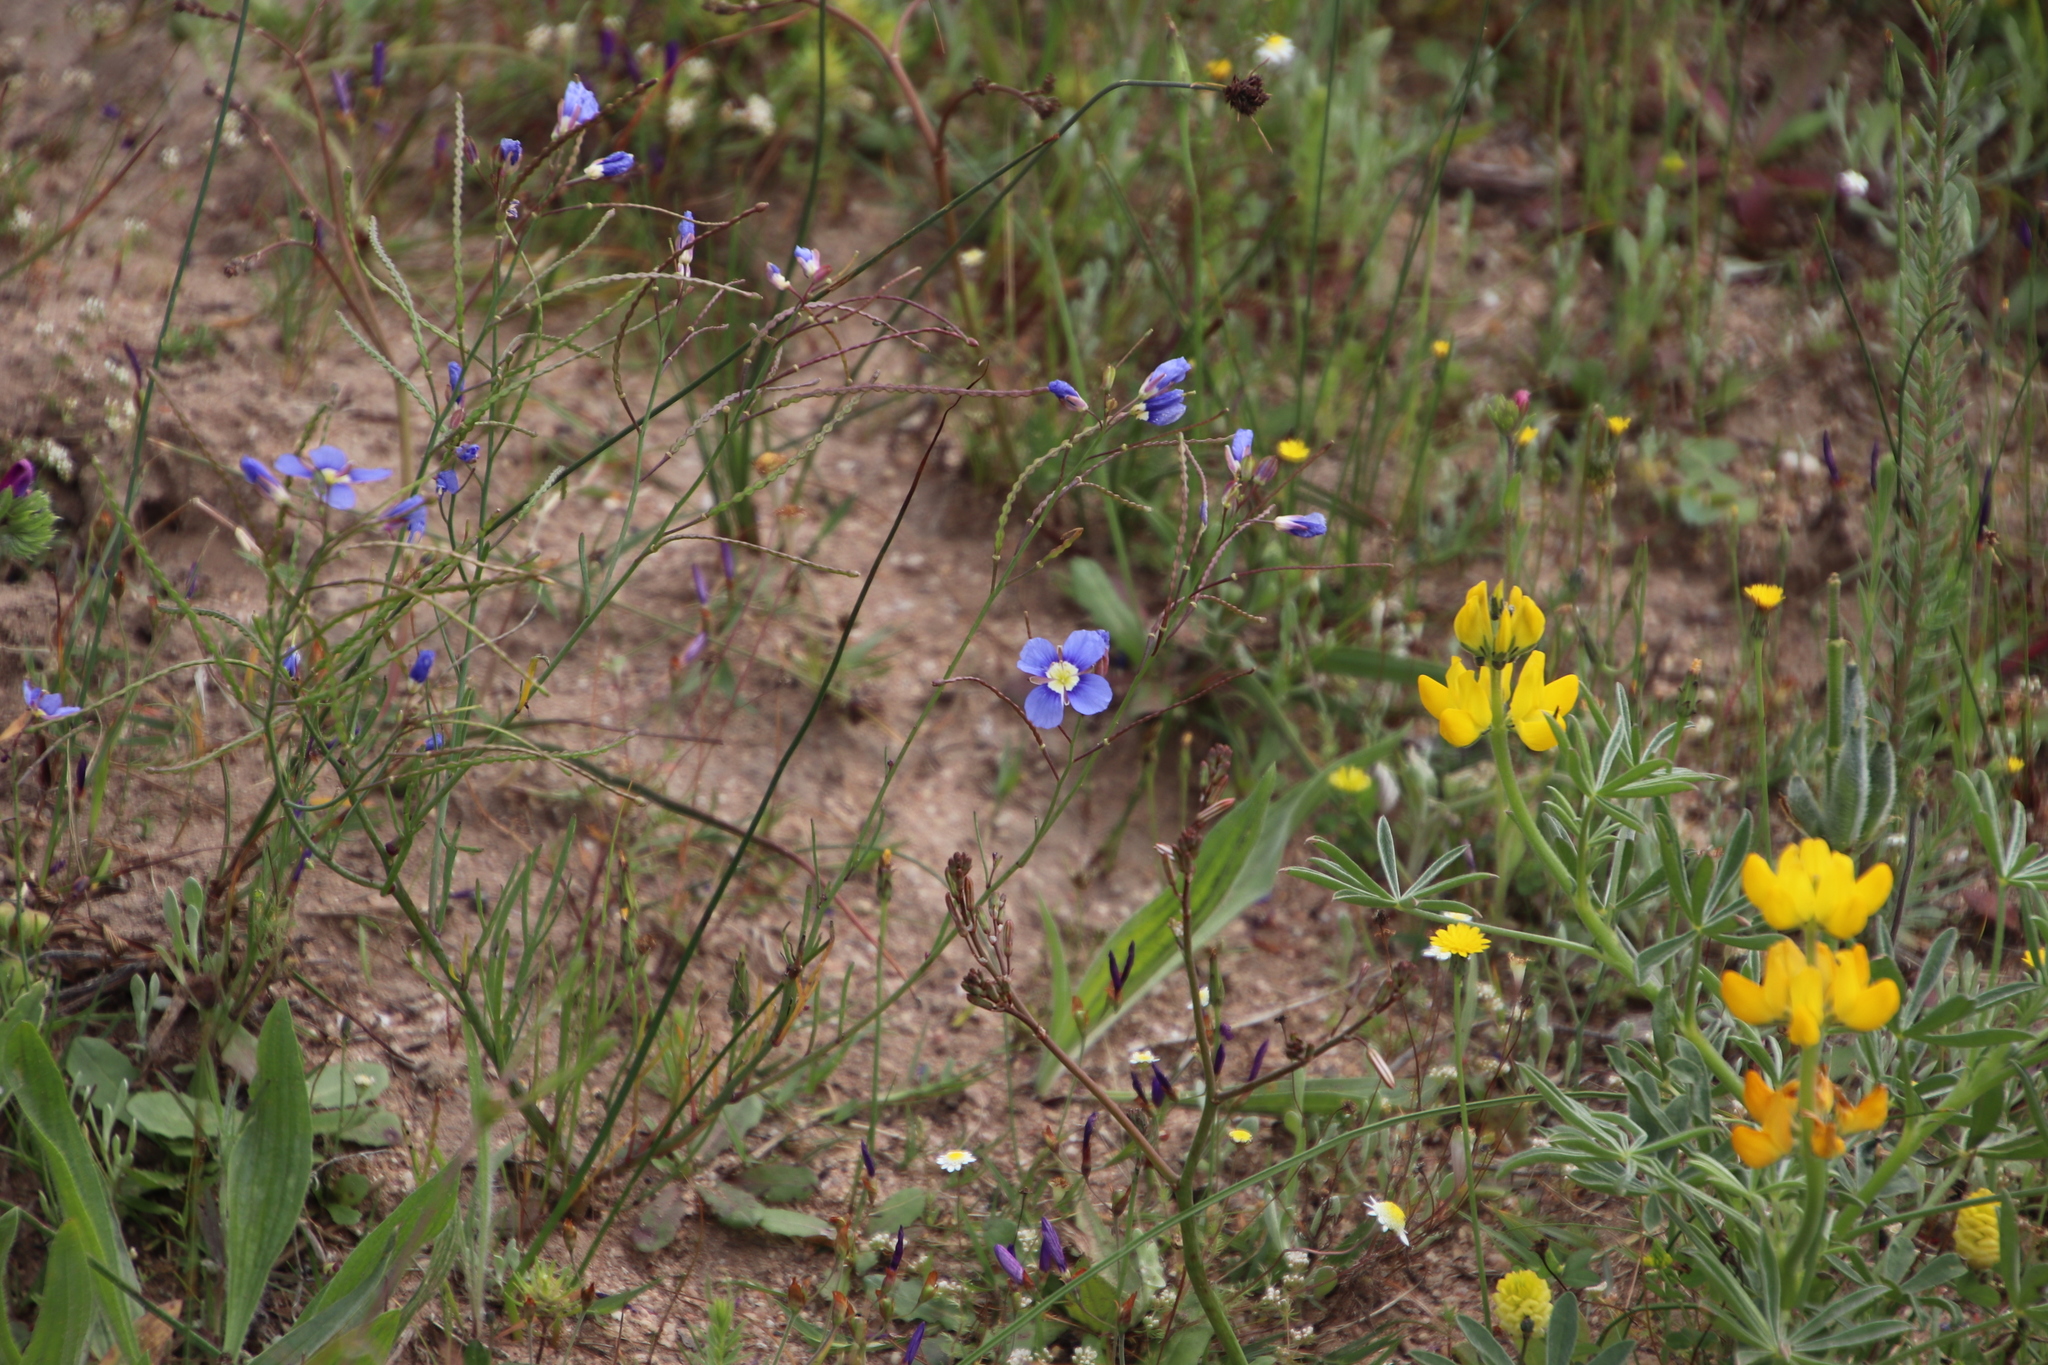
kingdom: Plantae
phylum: Tracheophyta
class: Magnoliopsida
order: Brassicales
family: Brassicaceae
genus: Heliophila
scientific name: Heliophila coronopifolia
